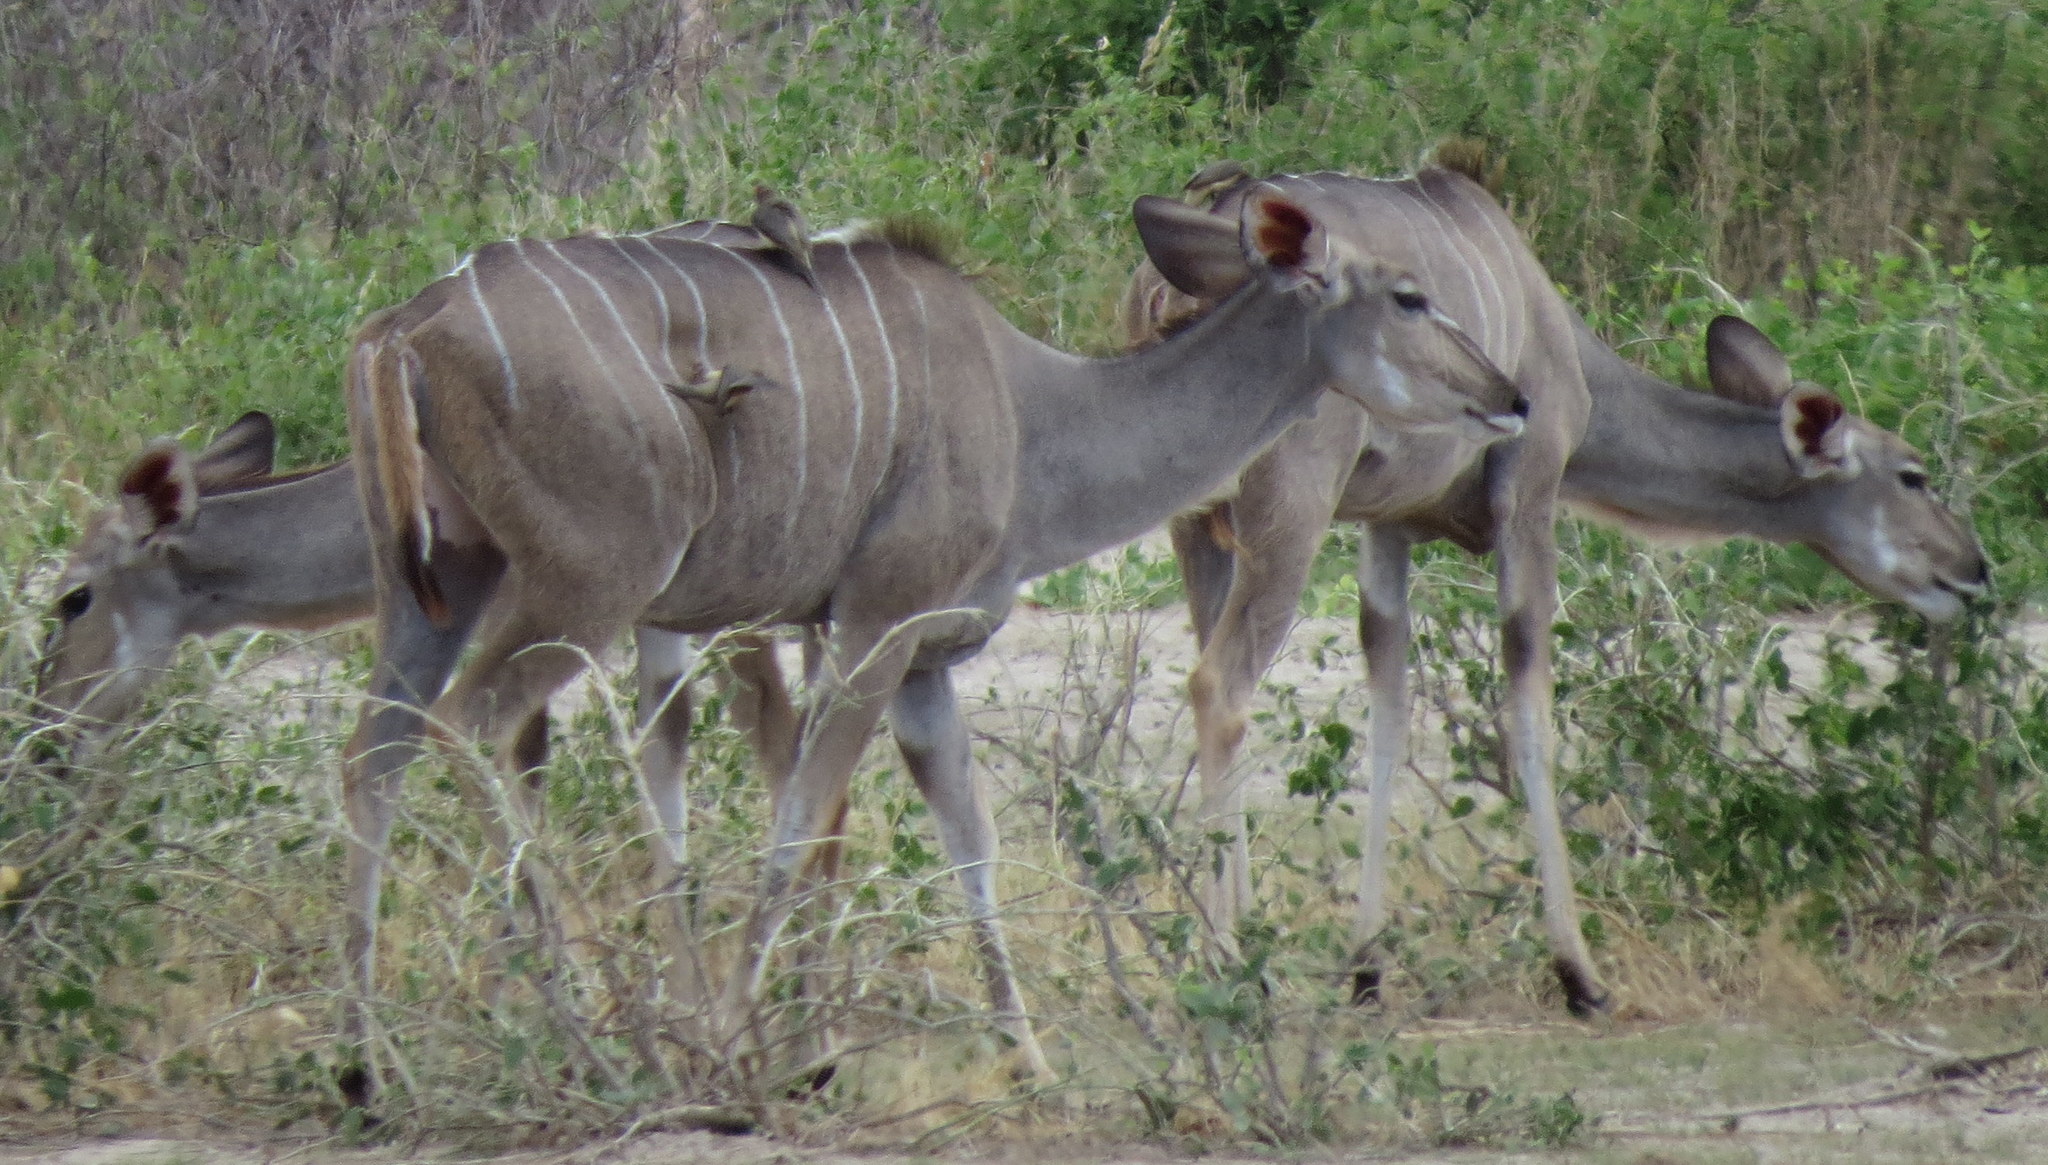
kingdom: Animalia
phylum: Chordata
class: Mammalia
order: Artiodactyla
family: Bovidae
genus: Tragelaphus
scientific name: Tragelaphus strepsiceros
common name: Greater kudu
